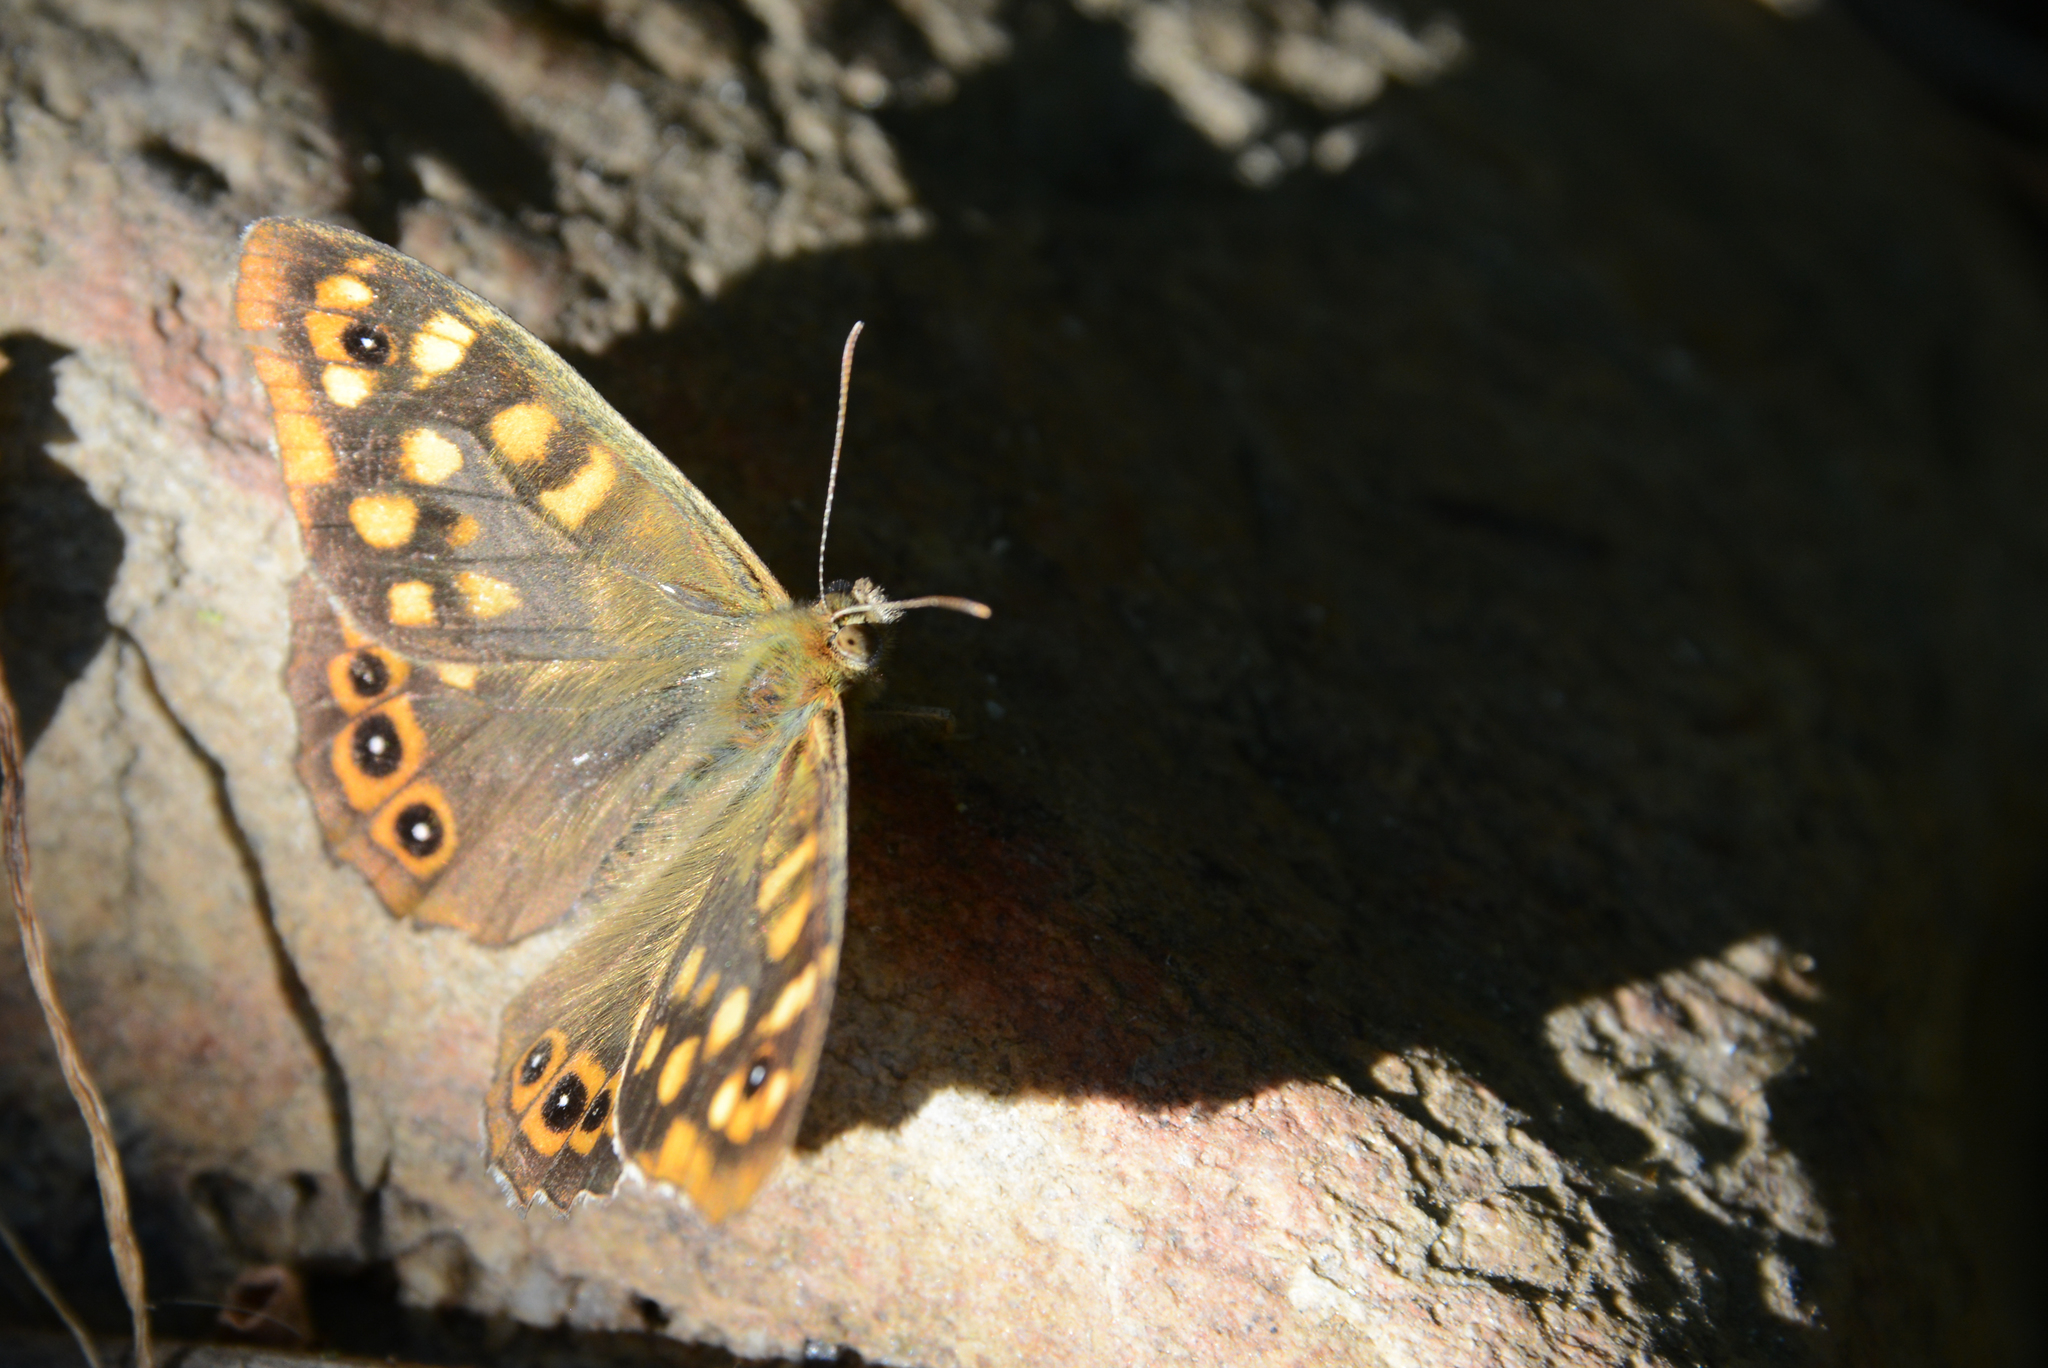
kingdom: Animalia
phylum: Arthropoda
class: Insecta
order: Lepidoptera
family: Nymphalidae
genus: Pararge
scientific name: Pararge aegeria
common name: Speckled wood
